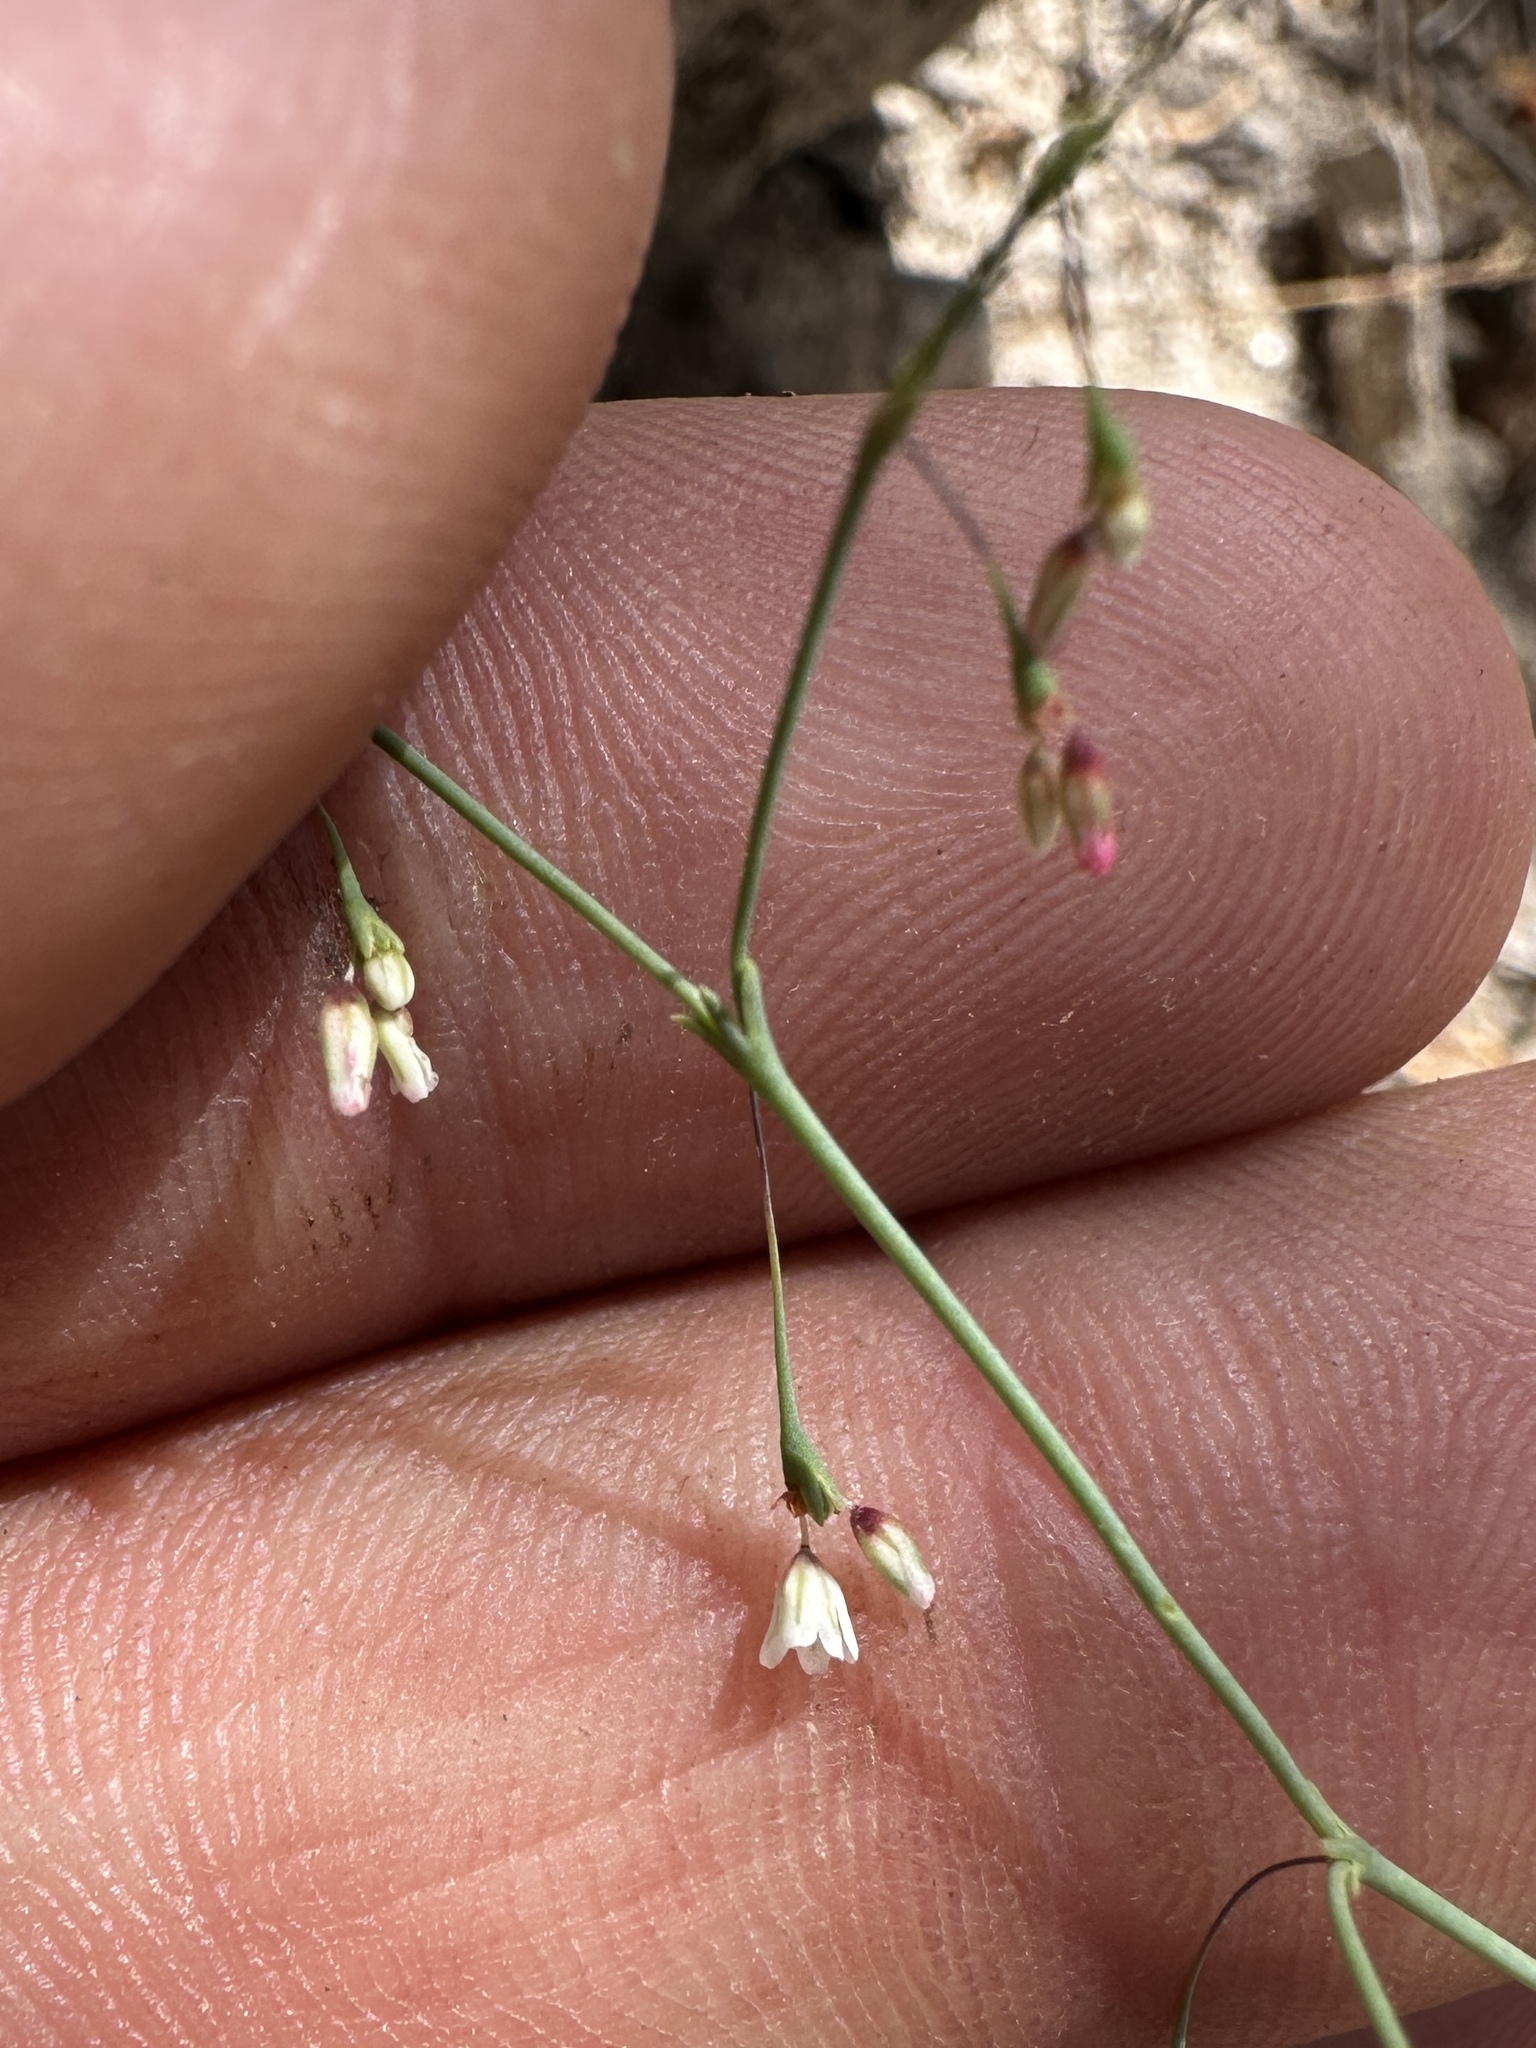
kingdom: Plantae
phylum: Tracheophyta
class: Magnoliopsida
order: Caryophyllales
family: Polygonaceae
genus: Eriogonum
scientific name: Eriogonum esmeraldense
